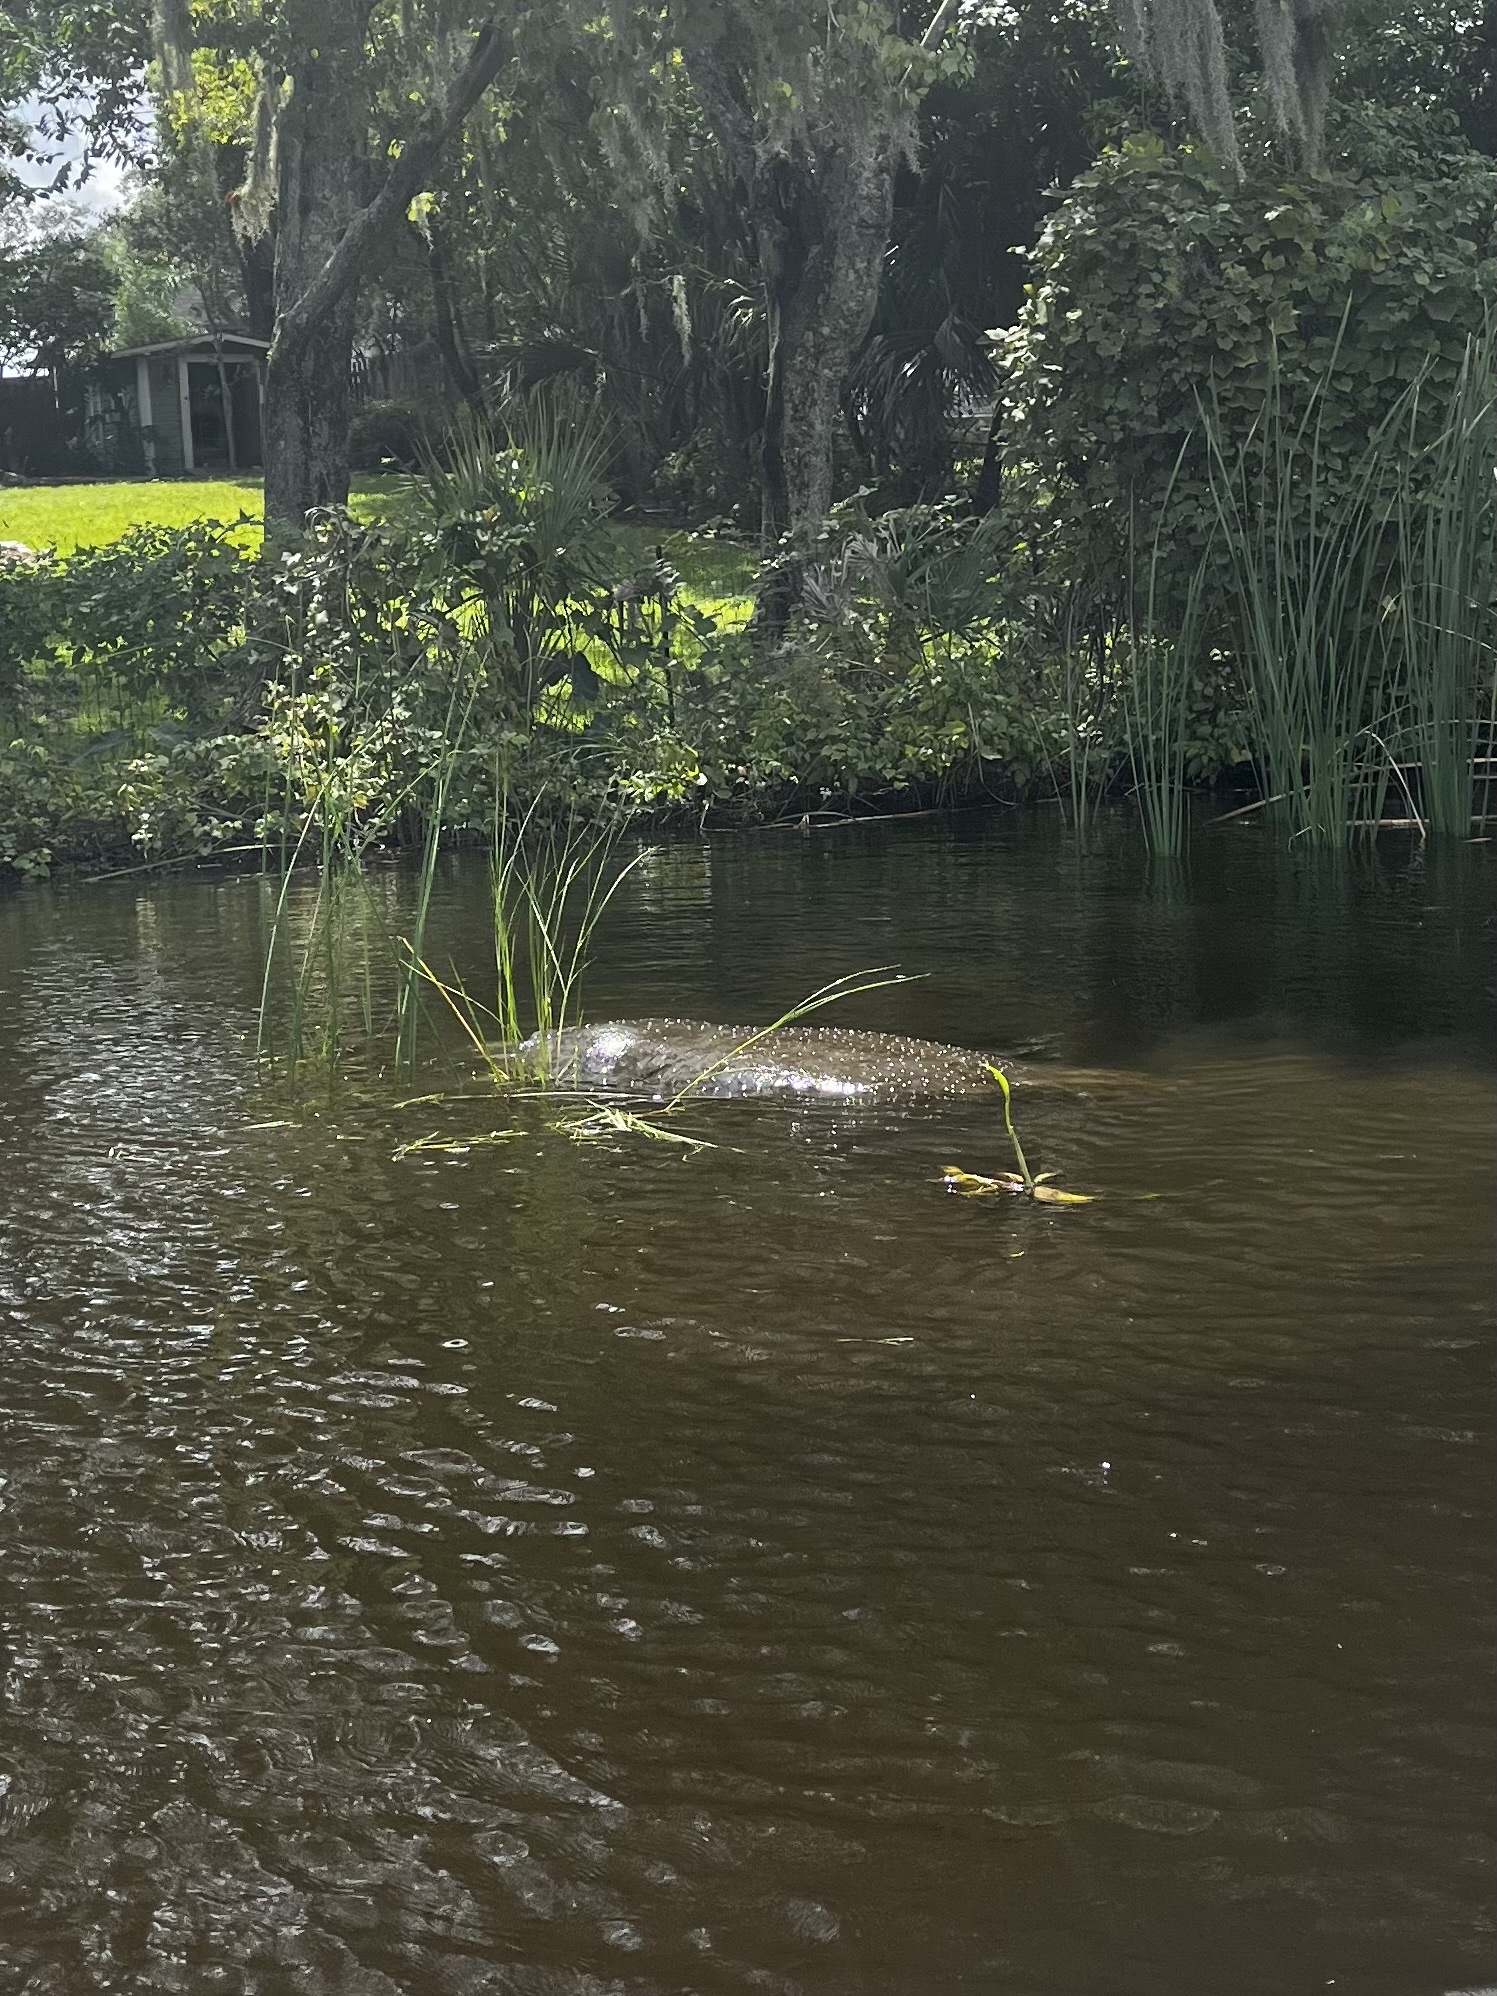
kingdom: Animalia
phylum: Chordata
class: Mammalia
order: Sirenia
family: Trichechidae
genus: Trichechus
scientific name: Trichechus manatus
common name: West indian manatee
